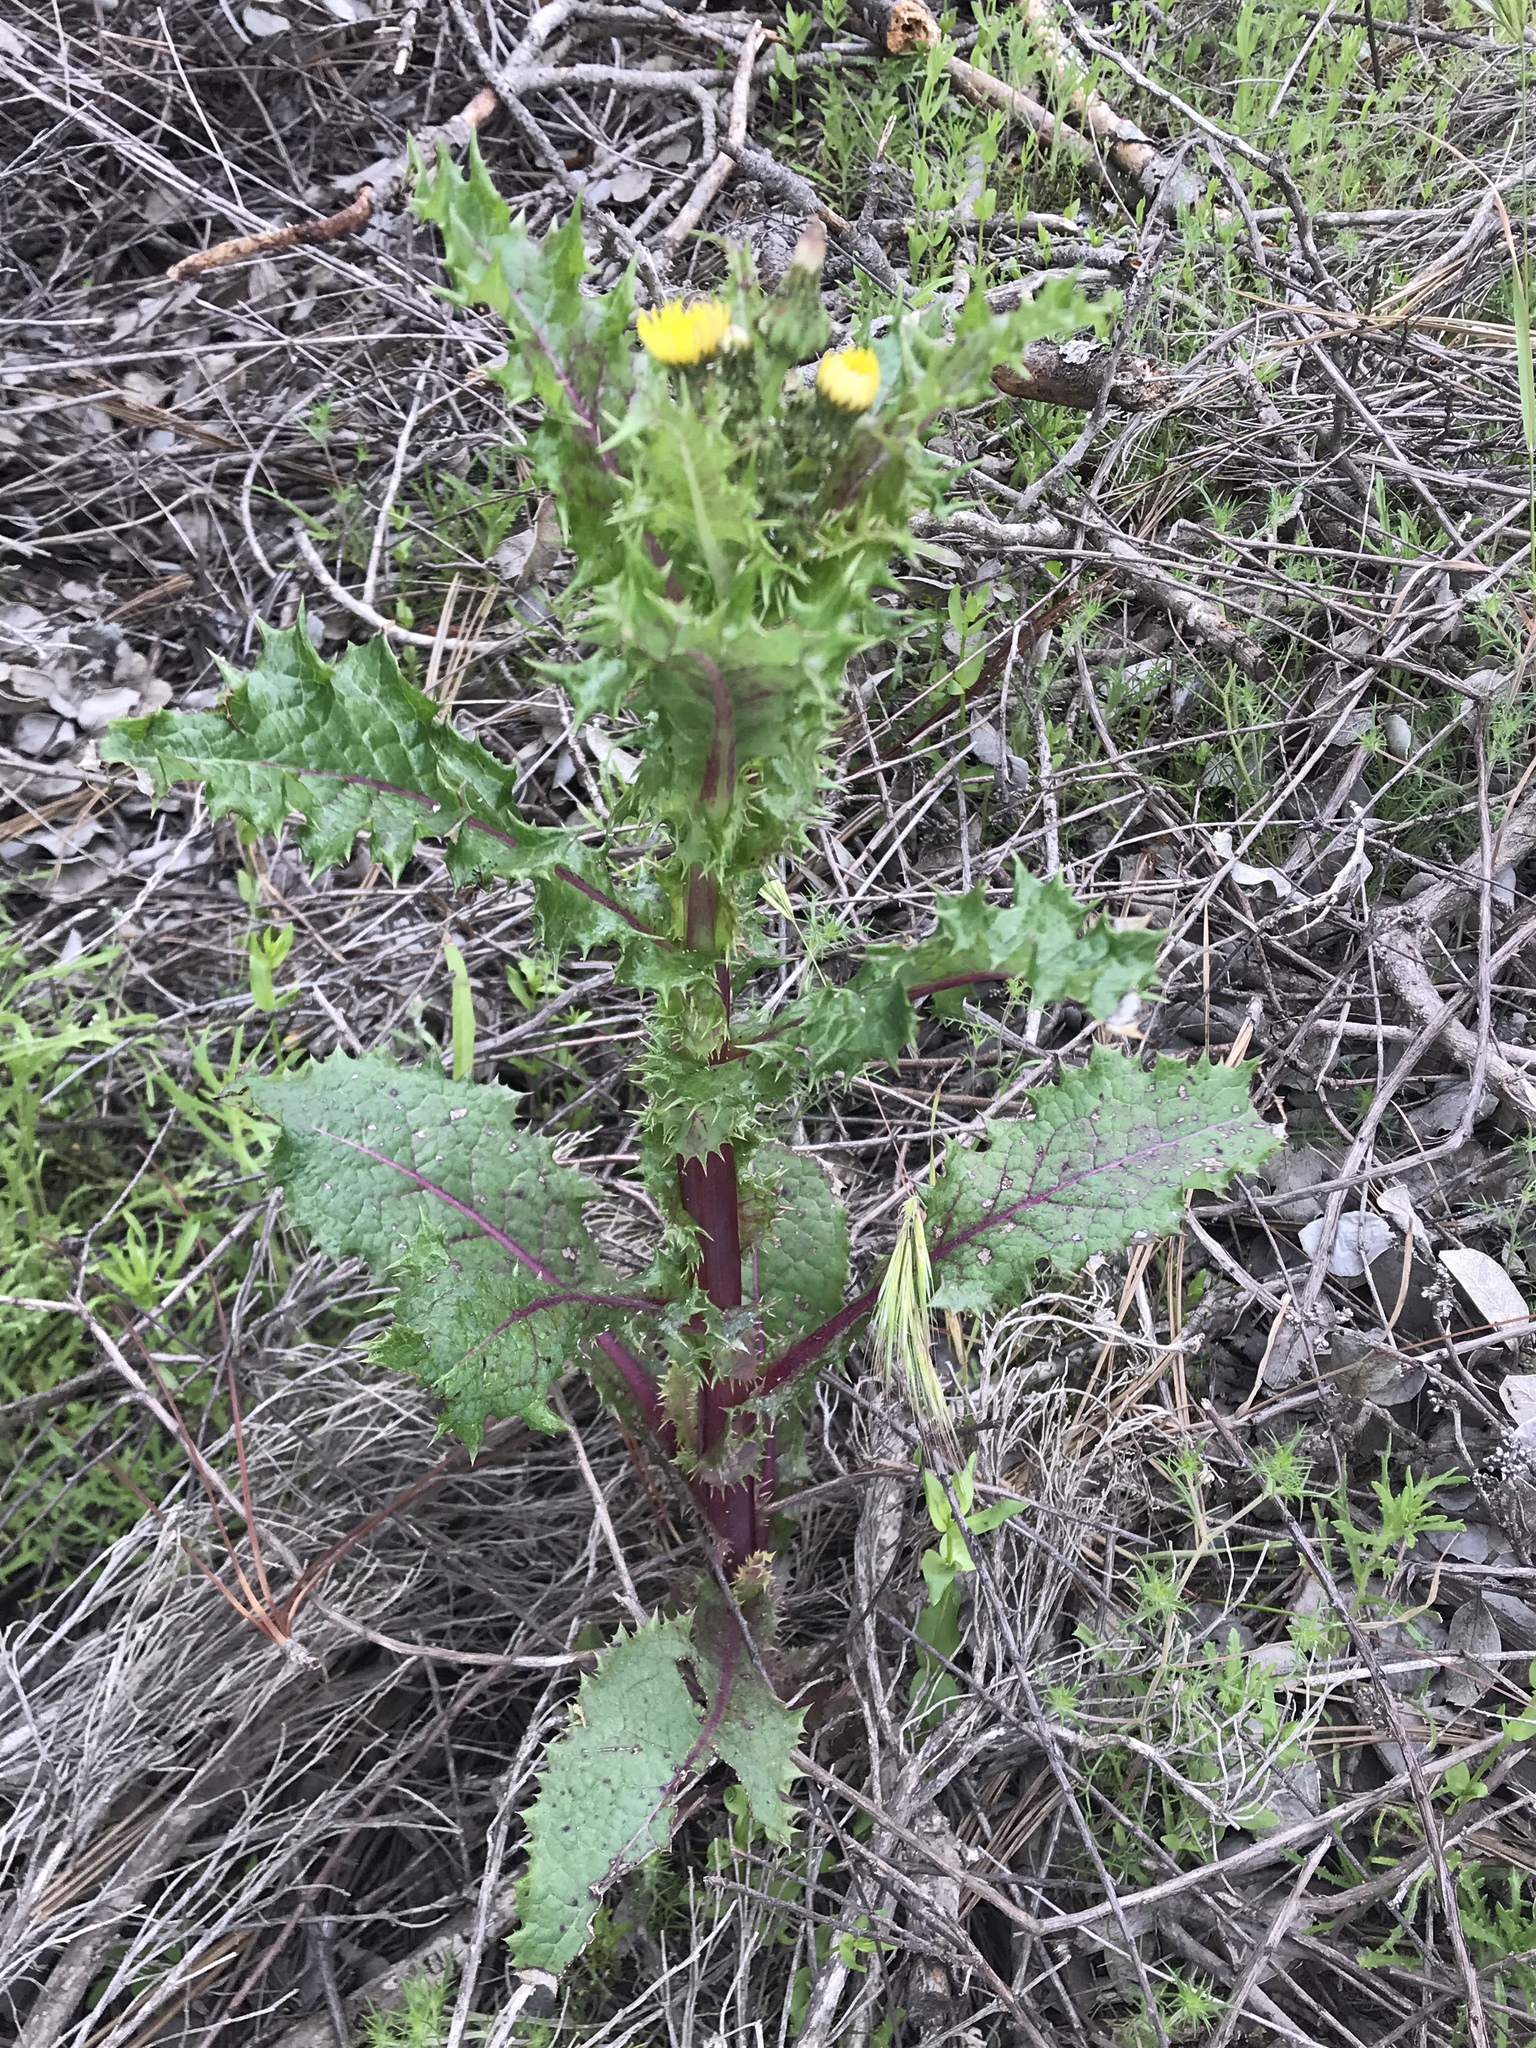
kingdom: Plantae
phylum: Tracheophyta
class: Magnoliopsida
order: Asterales
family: Asteraceae
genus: Sonchus
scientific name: Sonchus asper
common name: Prickly sow-thistle
